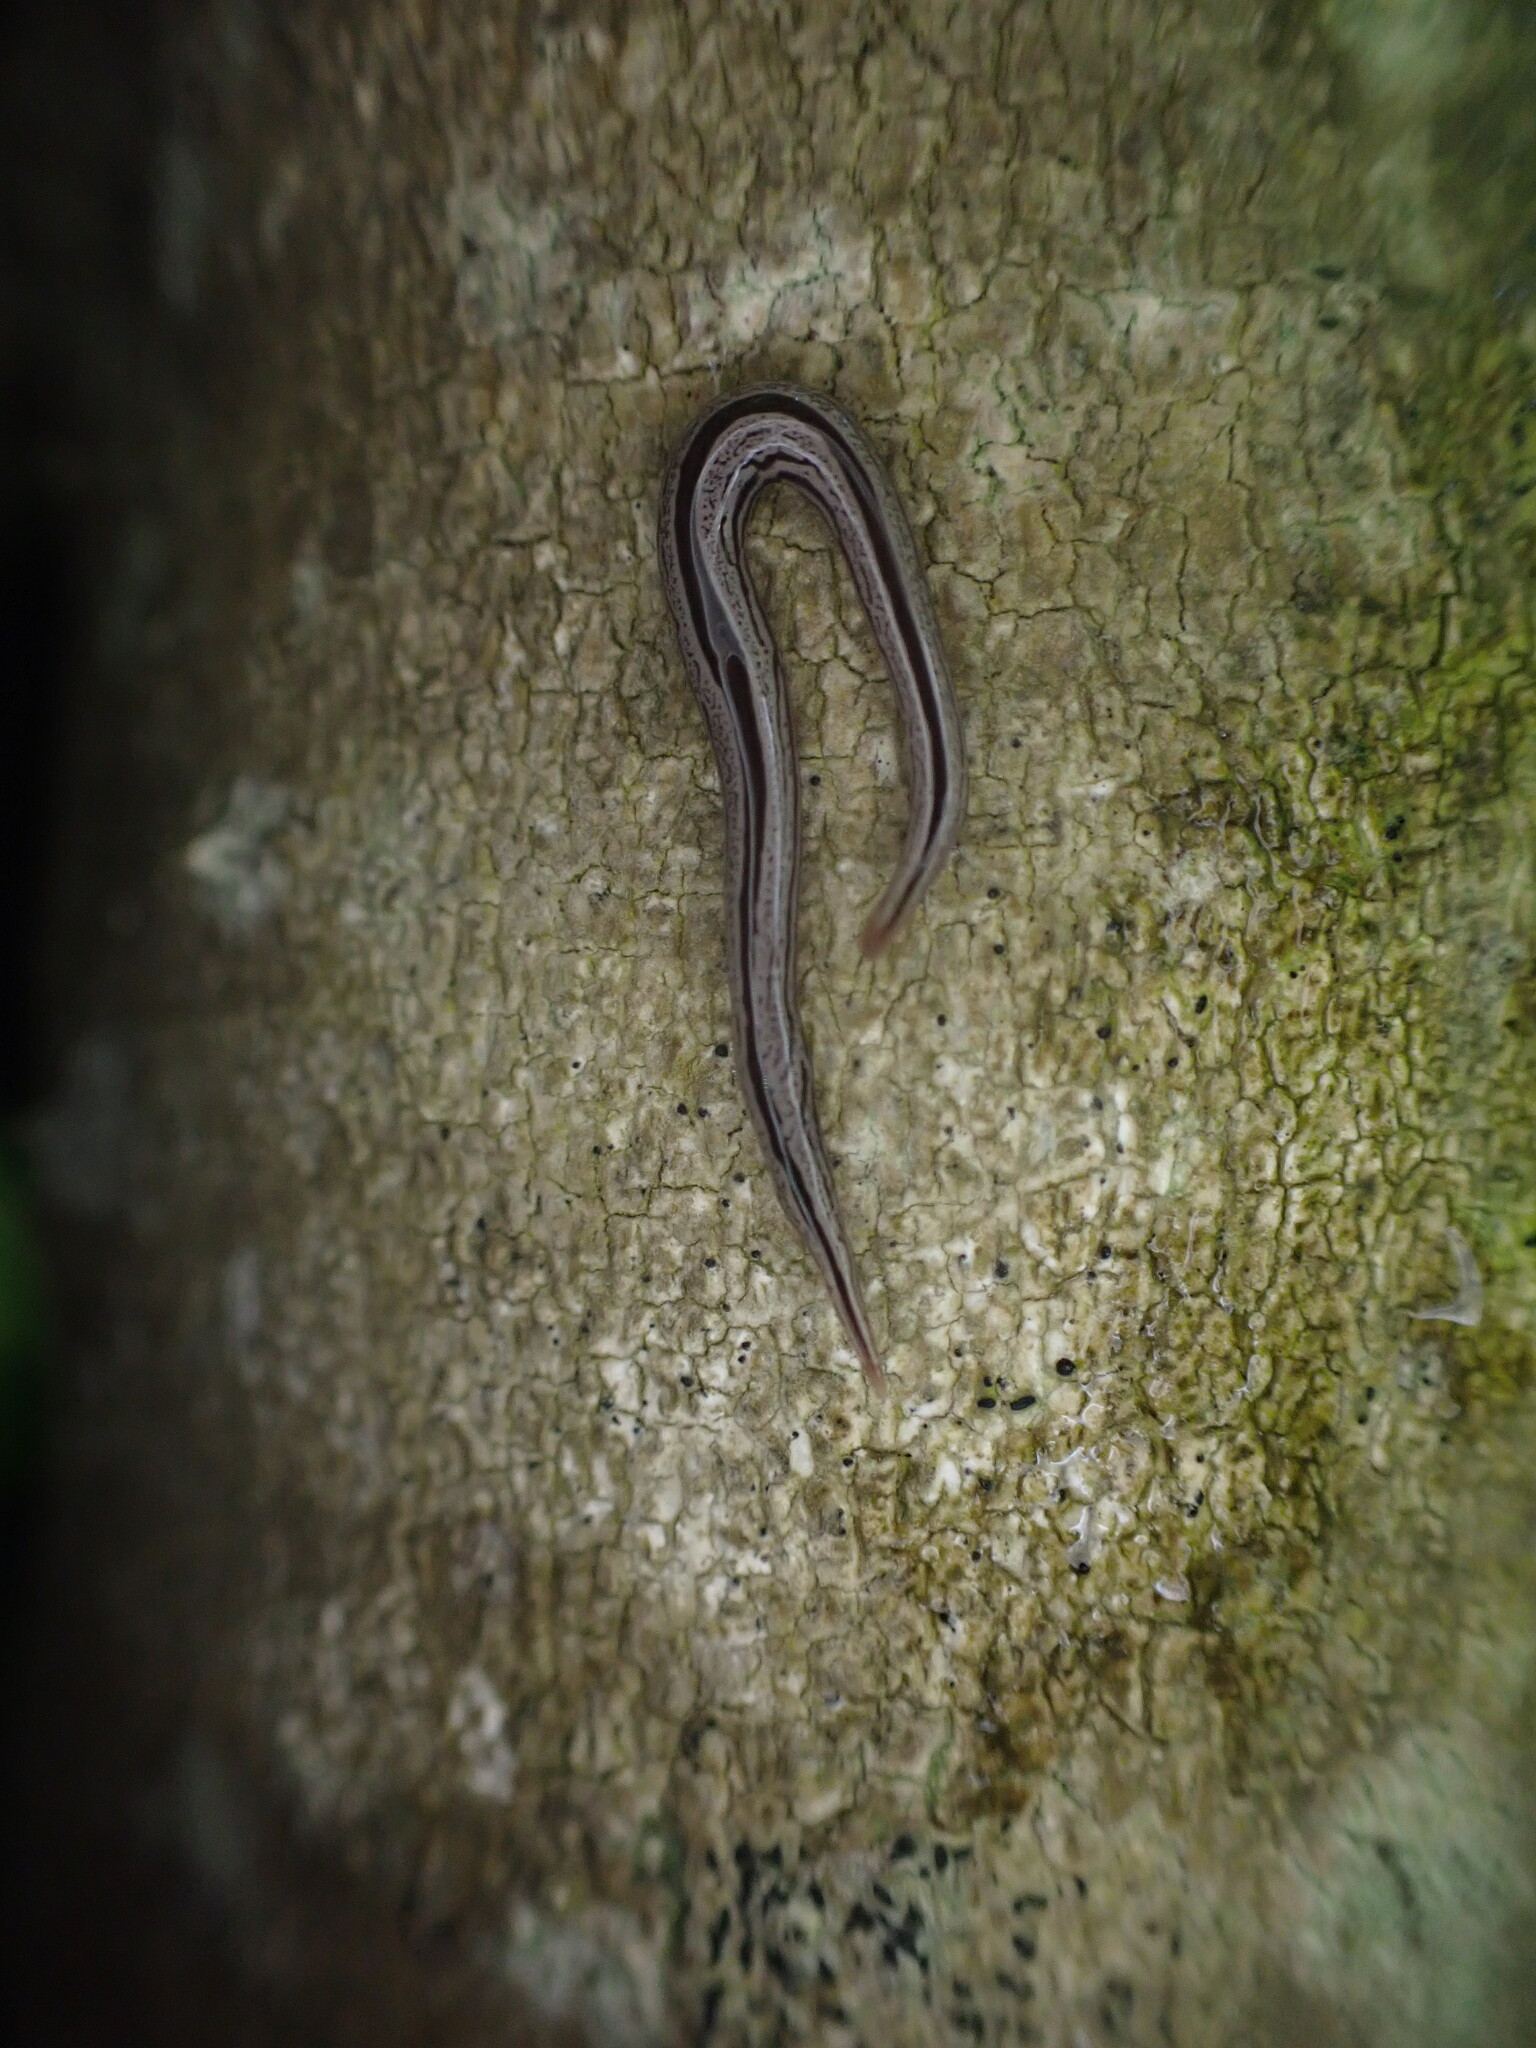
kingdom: Animalia
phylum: Platyhelminthes
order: Tricladida
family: Geoplanidae
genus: Artioposthia
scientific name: Artioposthia exulans
